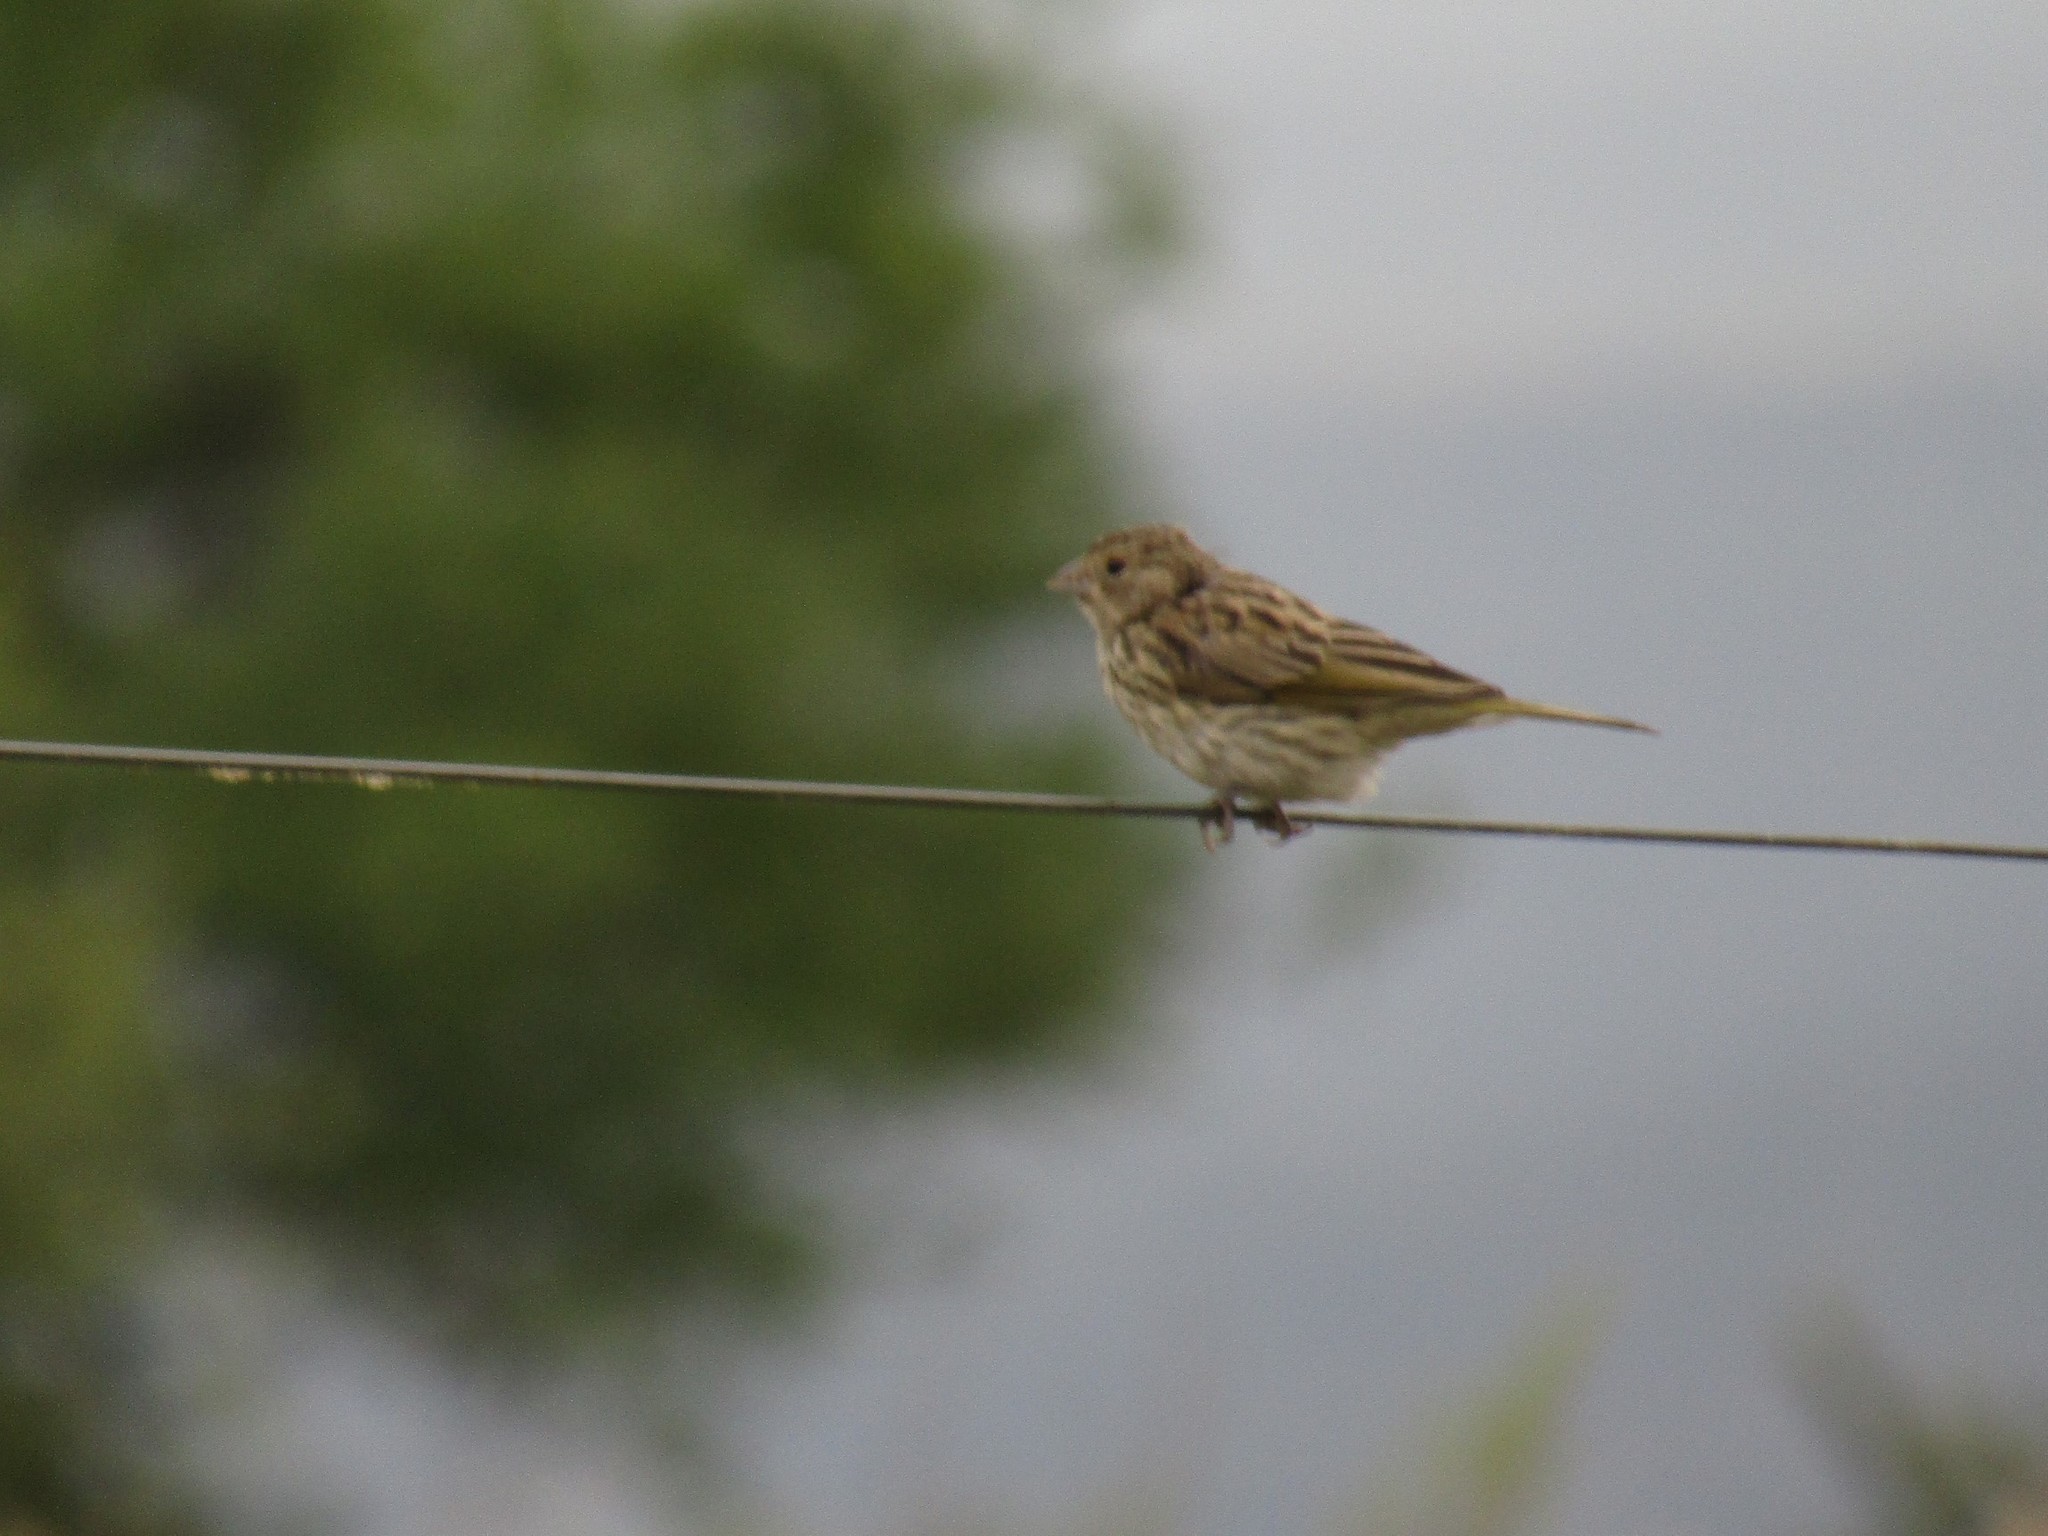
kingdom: Animalia
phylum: Chordata
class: Aves
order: Passeriformes
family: Thraupidae
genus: Sicalis
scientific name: Sicalis flaveola
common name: Saffron finch
